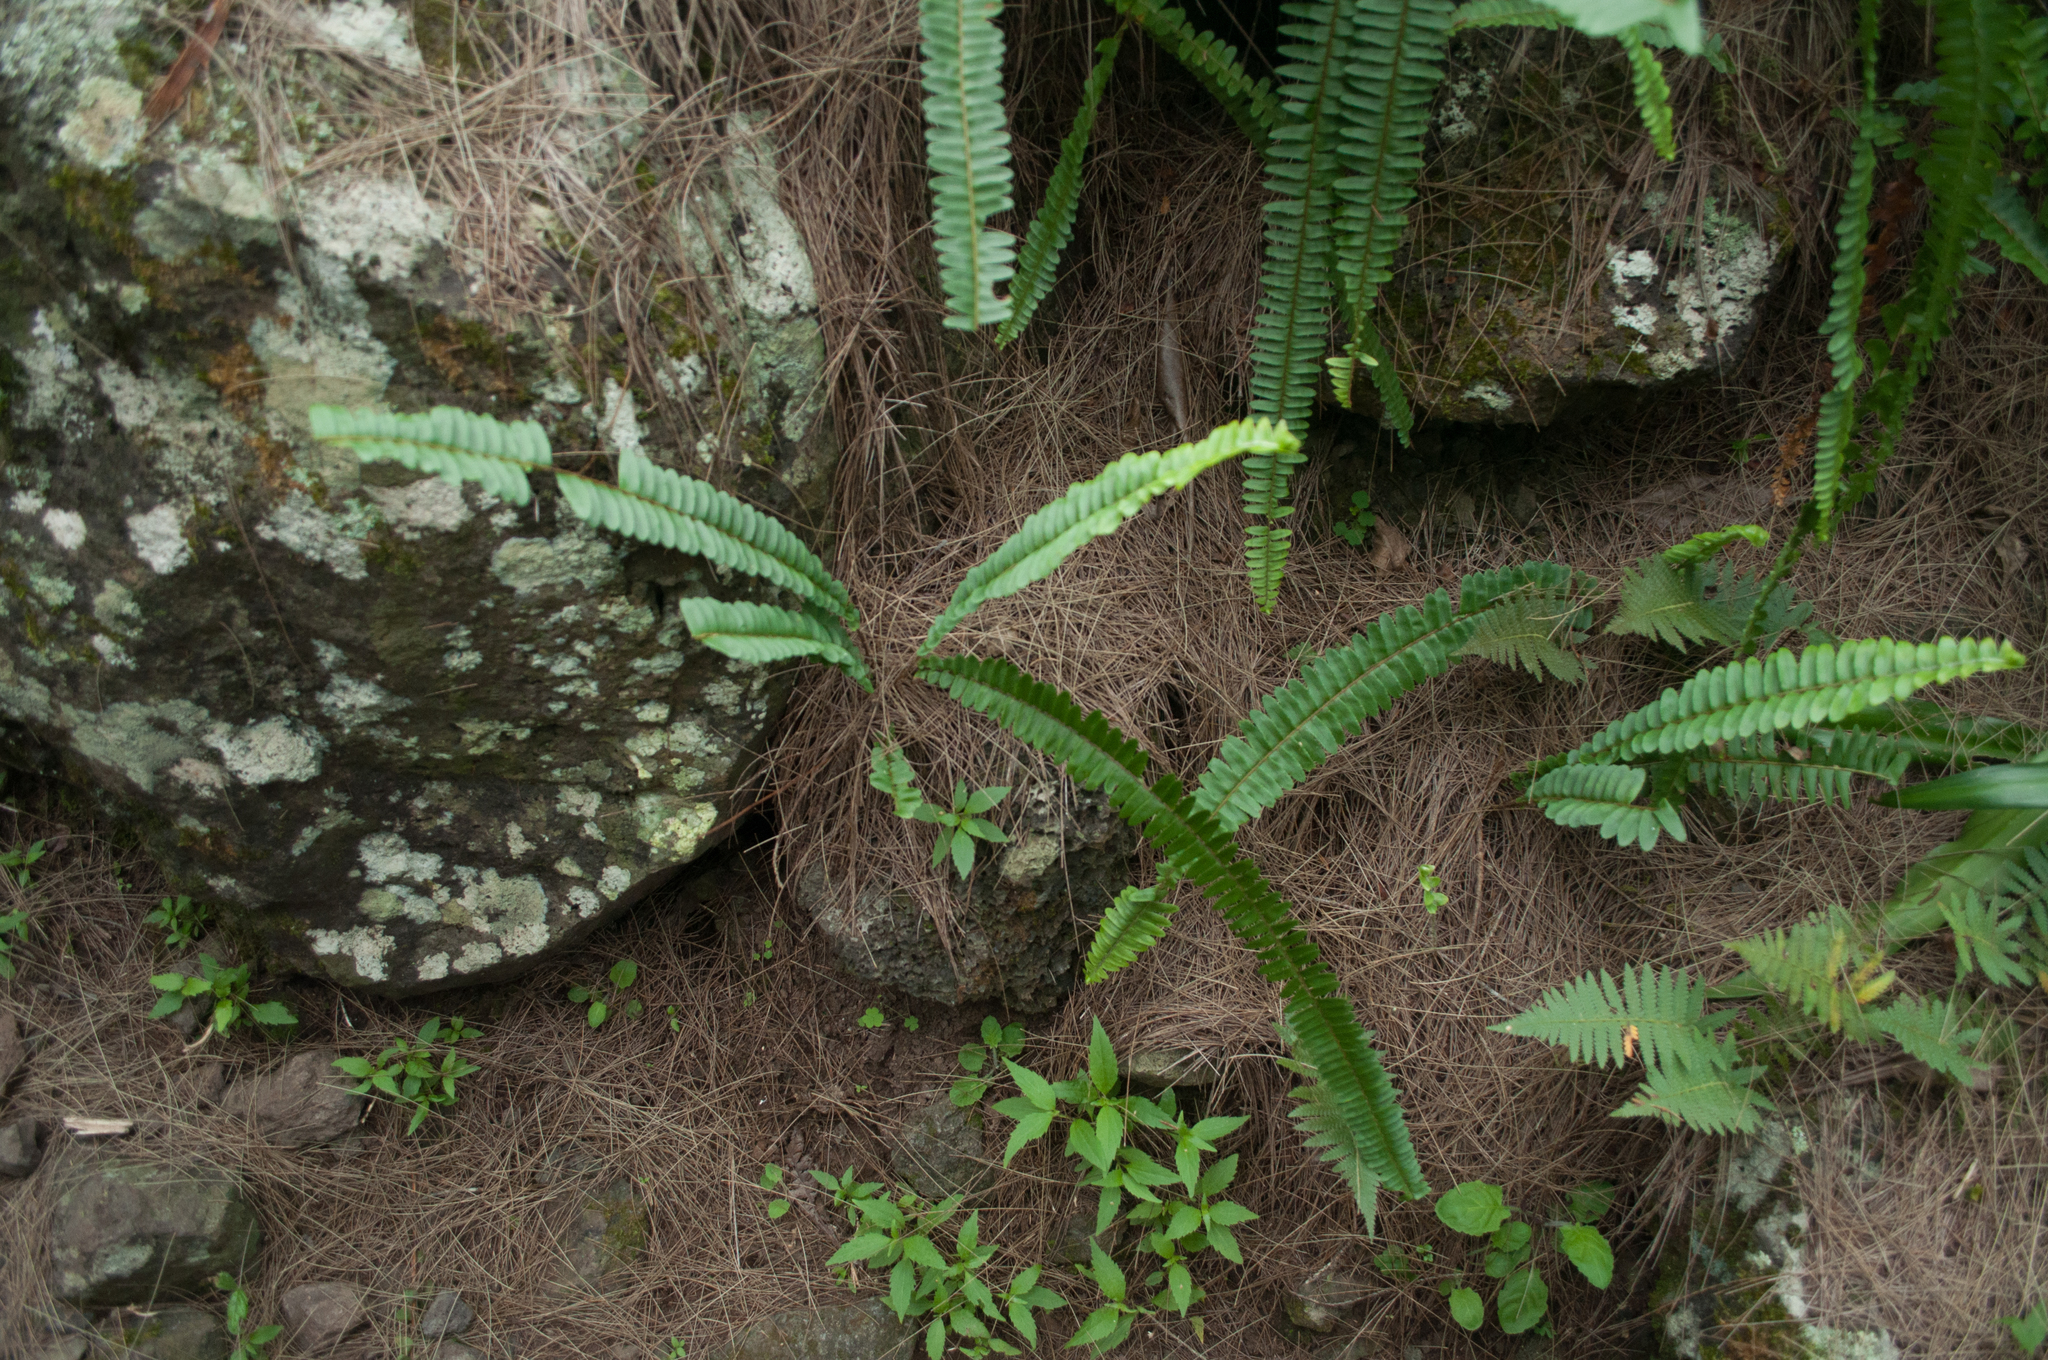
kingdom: Plantae
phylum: Tracheophyta
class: Polypodiopsida
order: Polypodiales
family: Nephrolepidaceae
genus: Nephrolepis
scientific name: Nephrolepis cordifolia
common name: Narrow swordfern
